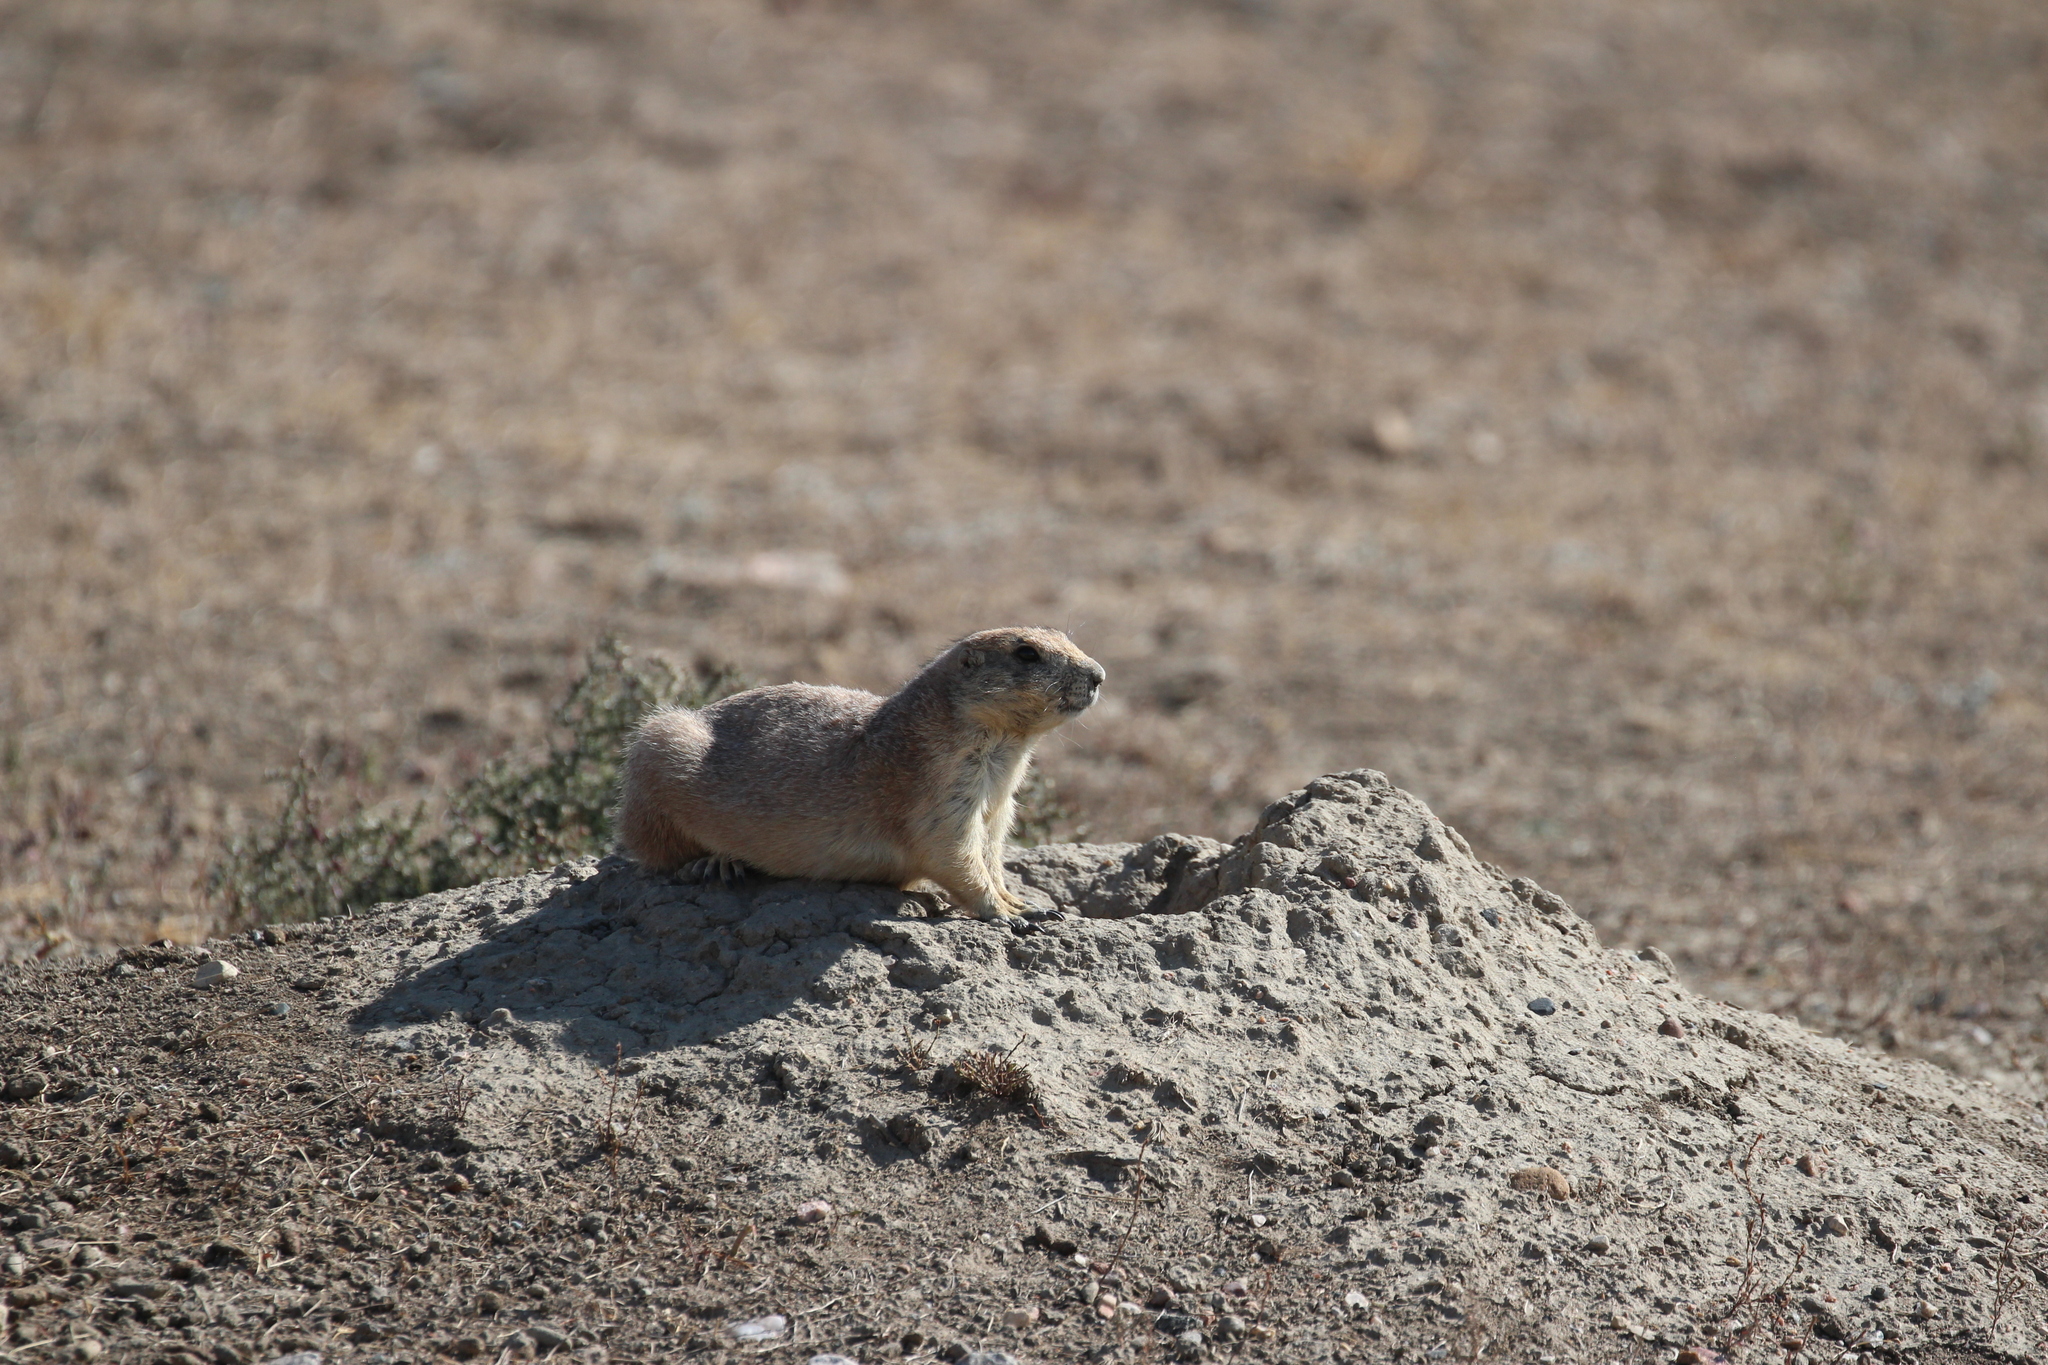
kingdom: Animalia
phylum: Chordata
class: Mammalia
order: Rodentia
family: Sciuridae
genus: Cynomys
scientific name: Cynomys ludovicianus
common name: Black-tailed prairie dog
